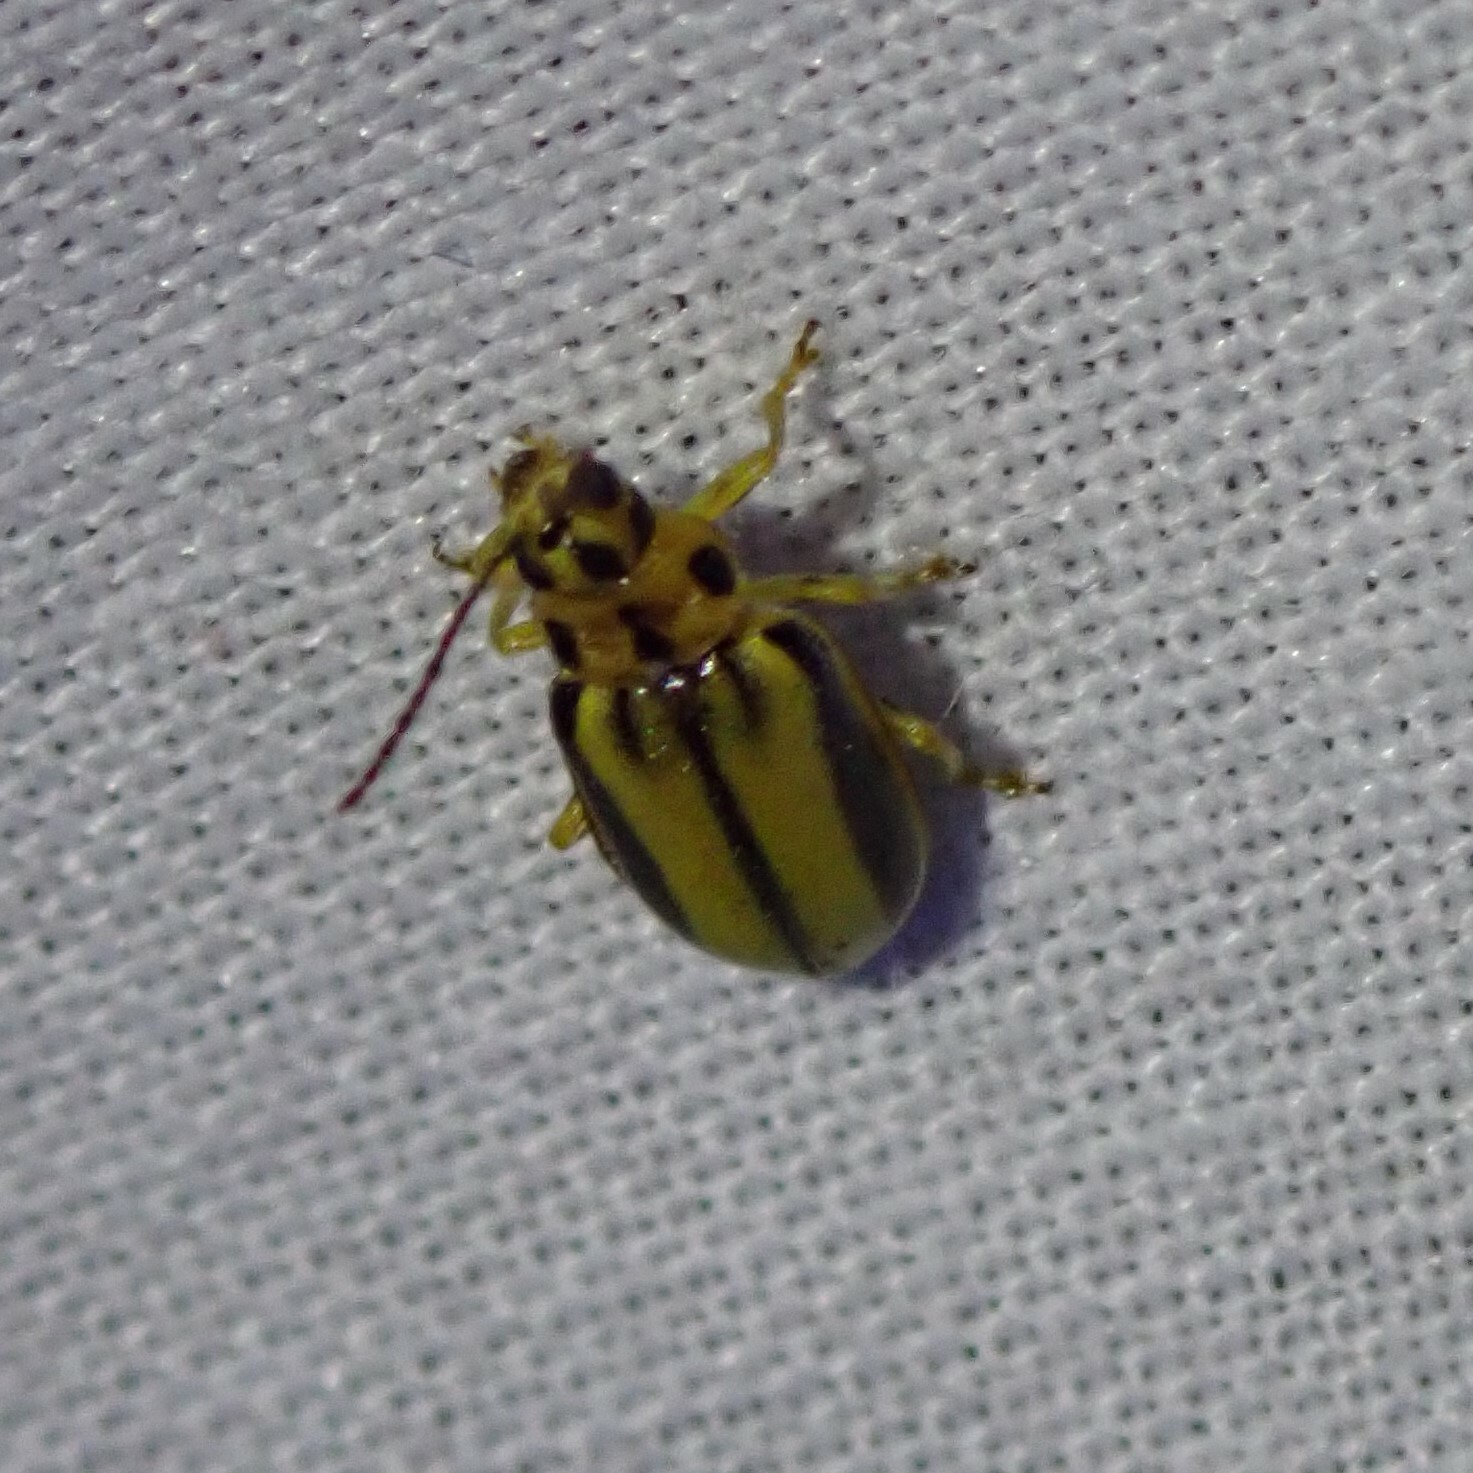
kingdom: Animalia
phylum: Arthropoda
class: Insecta
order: Coleoptera
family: Chrysomelidae
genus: Xanthogaleruca
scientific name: Xanthogaleruca luteola
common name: Elm leaf beetle
